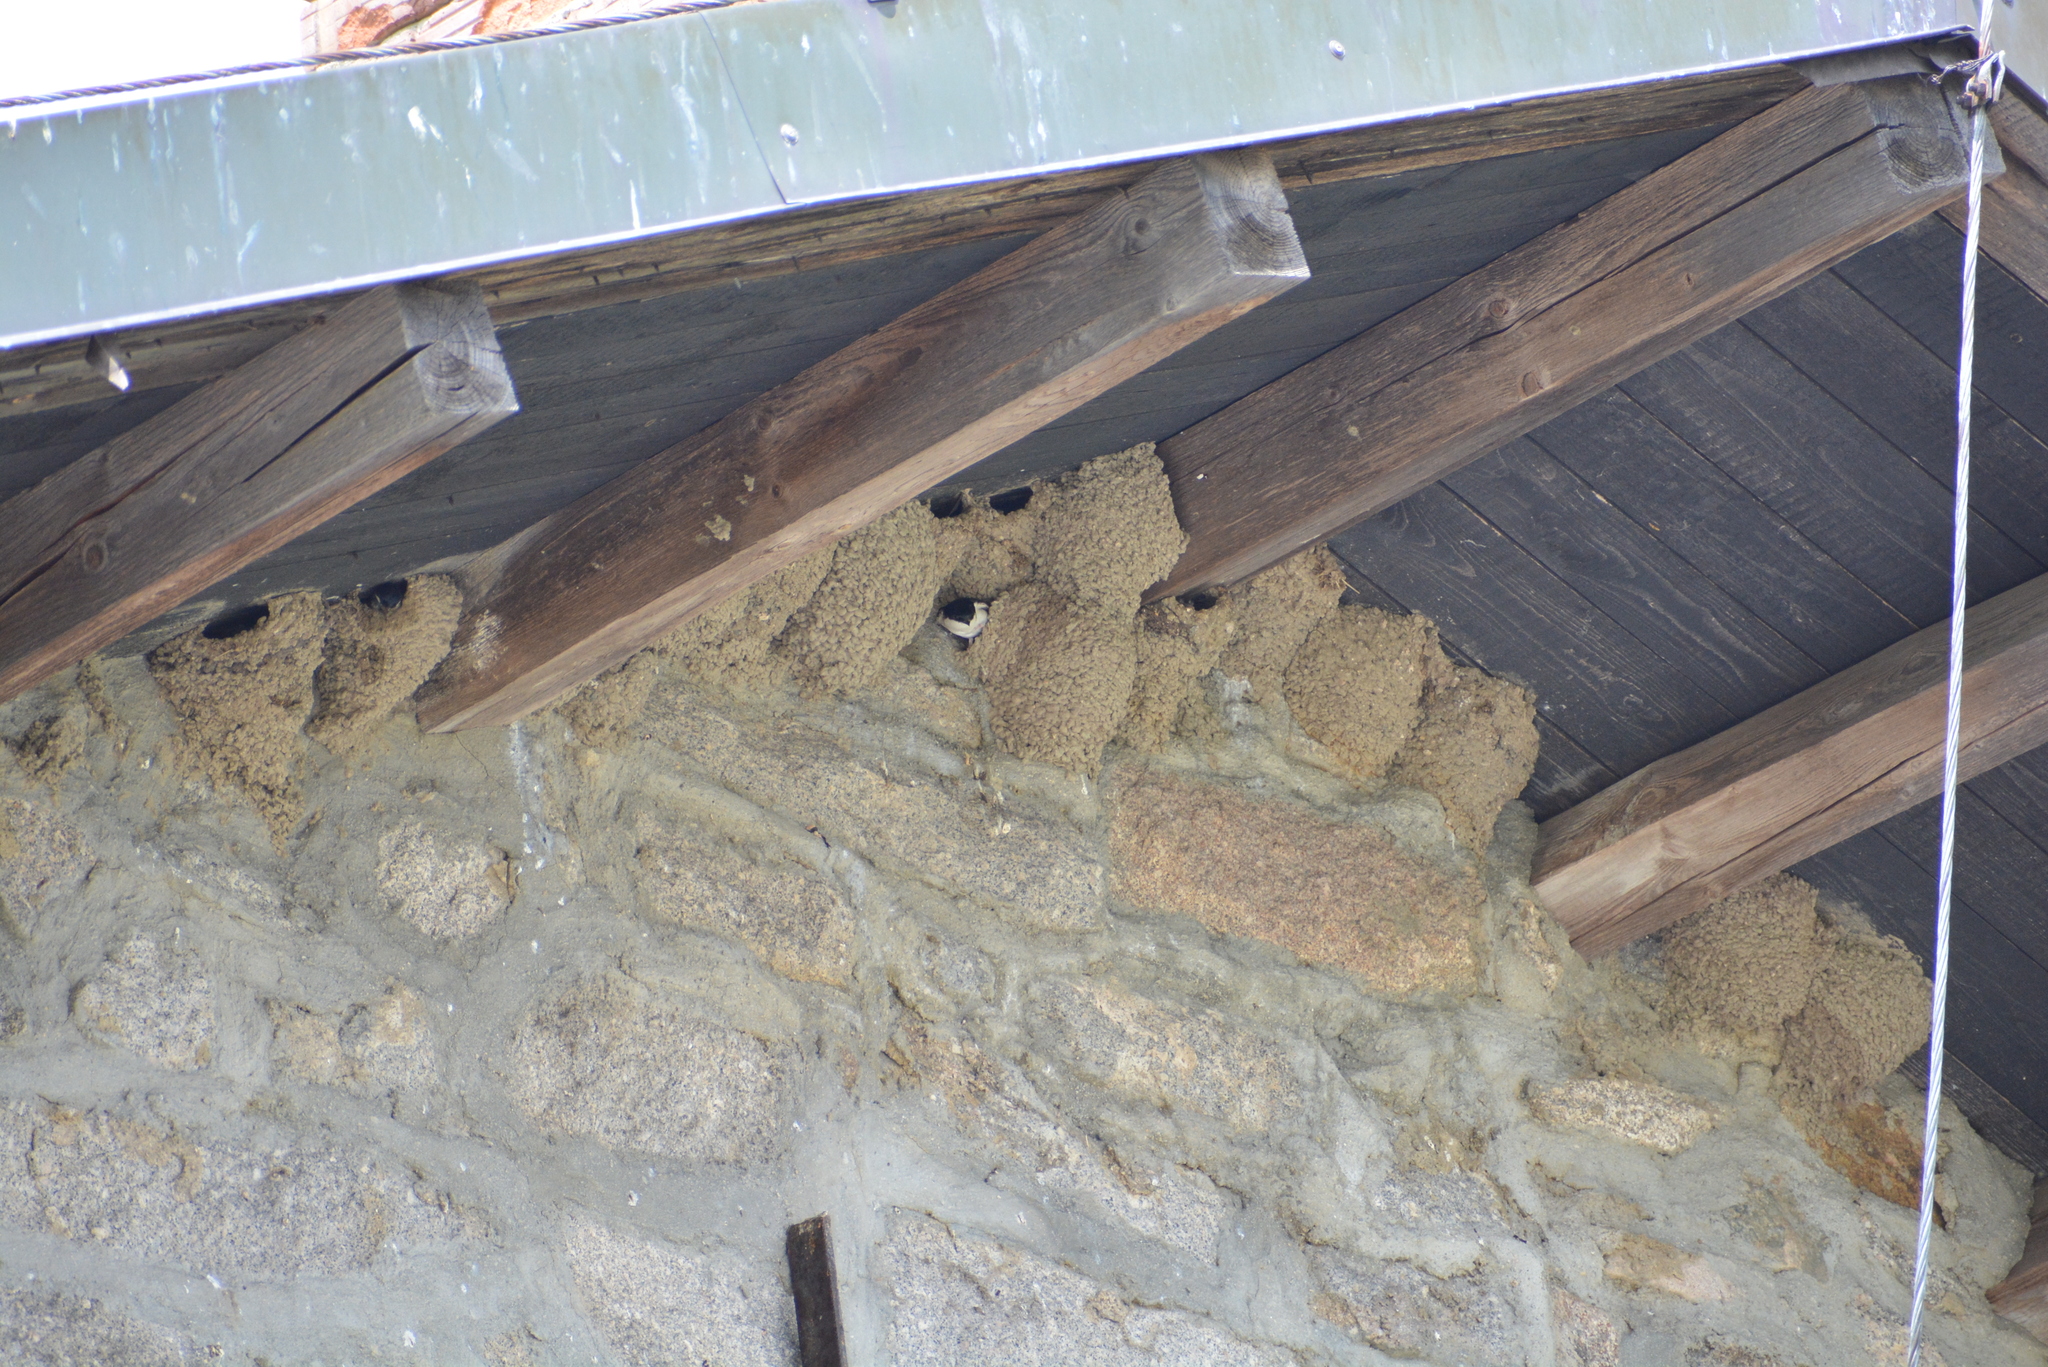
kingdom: Animalia
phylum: Chordata
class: Aves
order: Passeriformes
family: Hirundinidae
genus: Delichon
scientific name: Delichon urbicum
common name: Common house martin
